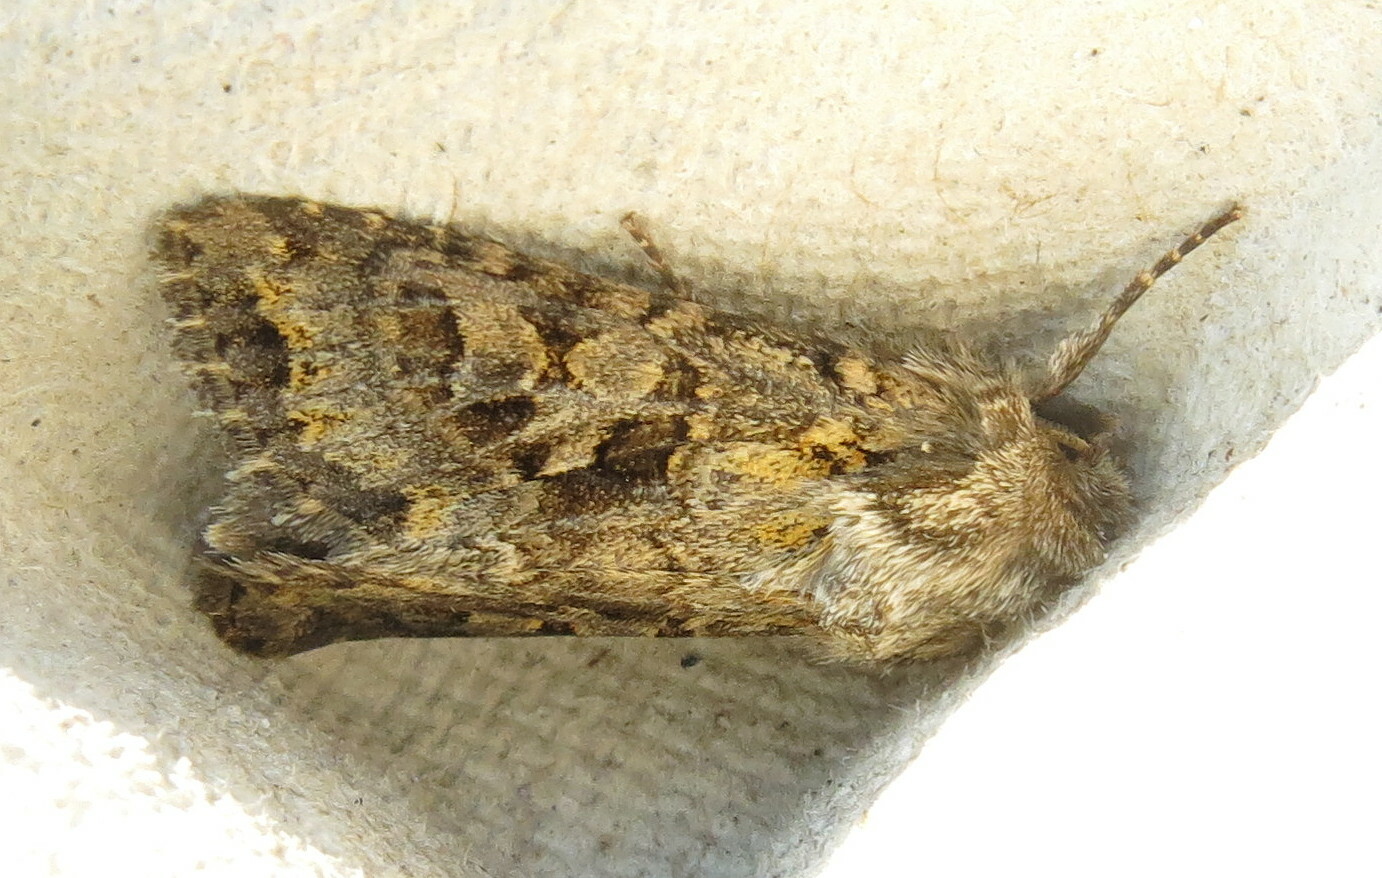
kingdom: Animalia
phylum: Arthropoda
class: Insecta
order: Lepidoptera
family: Noctuidae
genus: Hada
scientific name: Hada plebeja
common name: Shears
